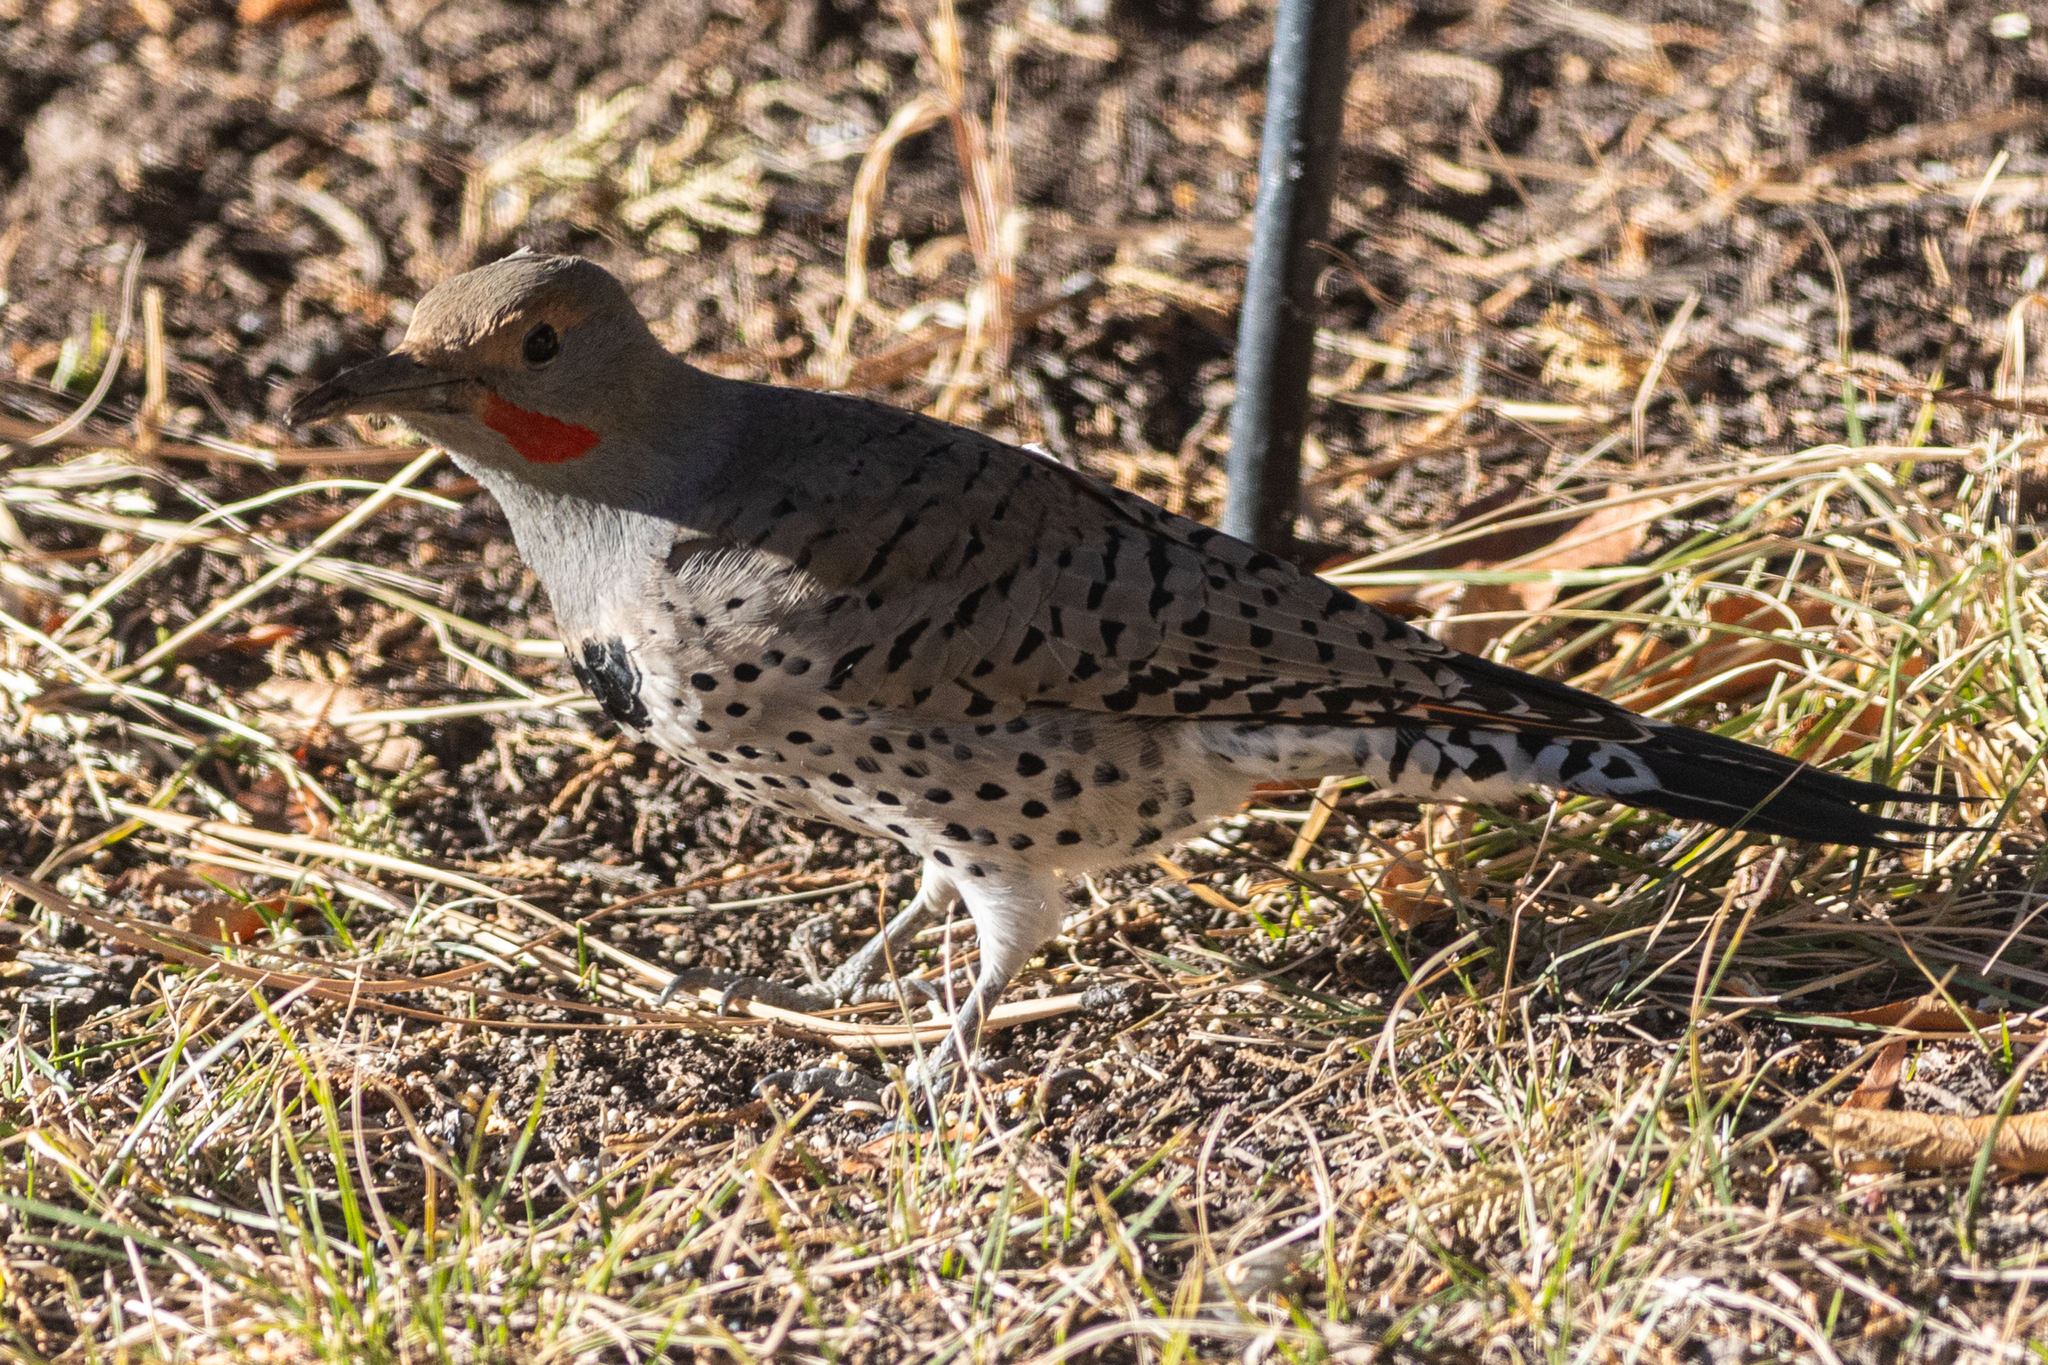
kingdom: Animalia
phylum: Chordata
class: Aves
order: Piciformes
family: Picidae
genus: Colaptes
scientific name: Colaptes auratus
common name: Northern flicker
